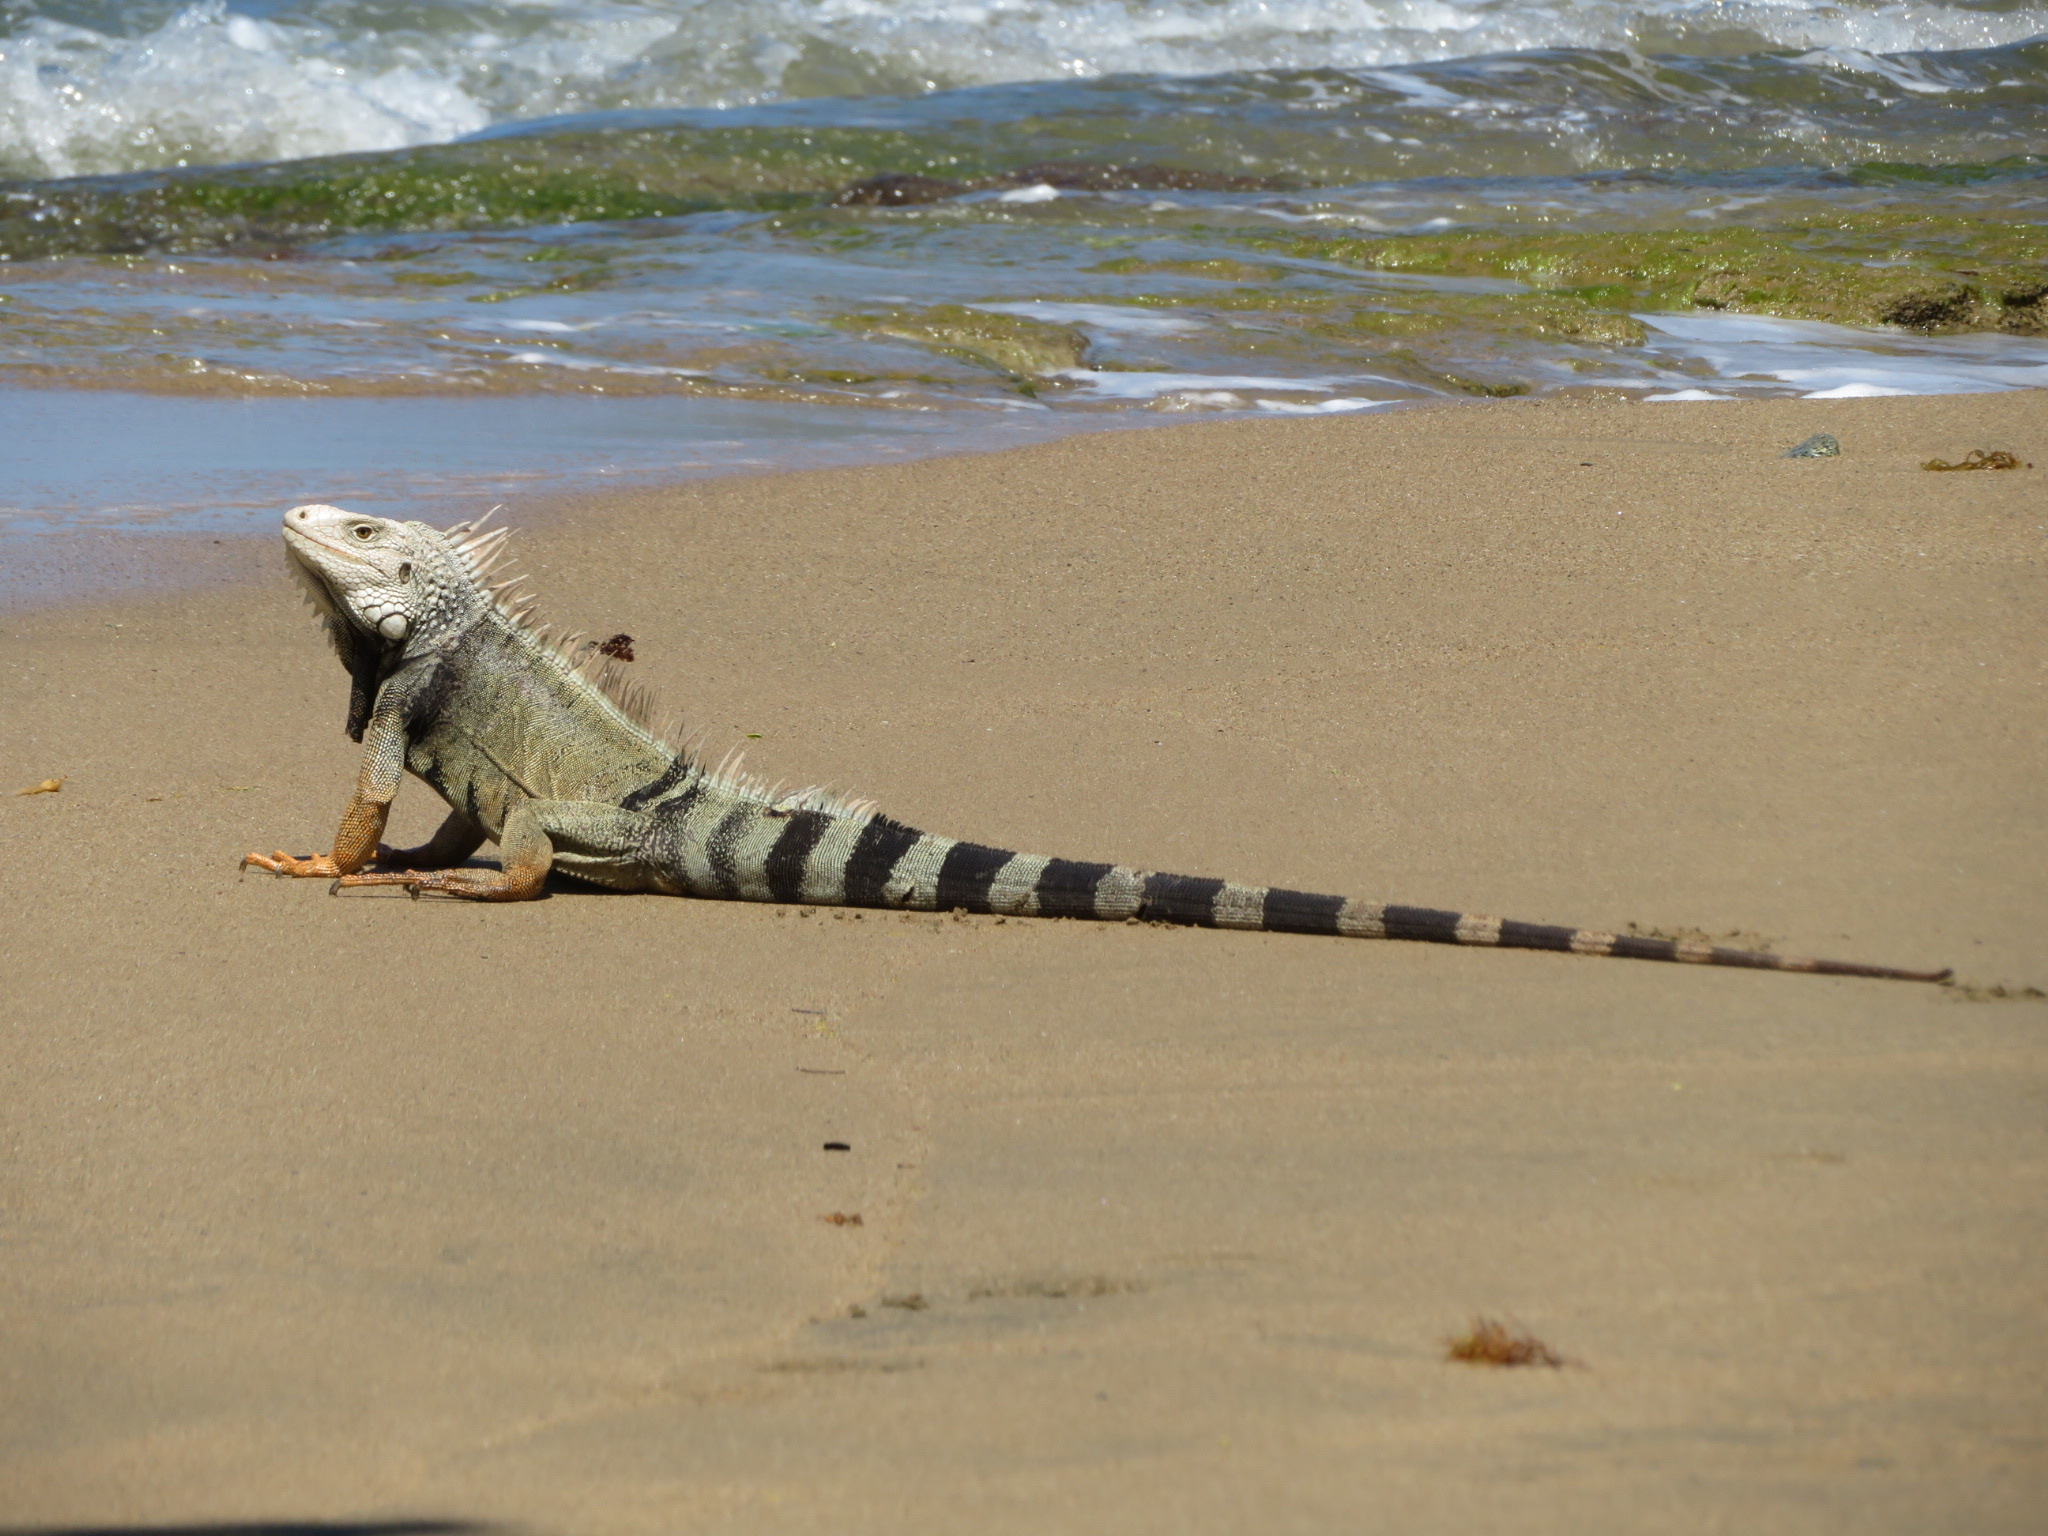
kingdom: Animalia
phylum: Chordata
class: Squamata
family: Iguanidae
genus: Iguana
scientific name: Iguana iguana
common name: Green iguana
